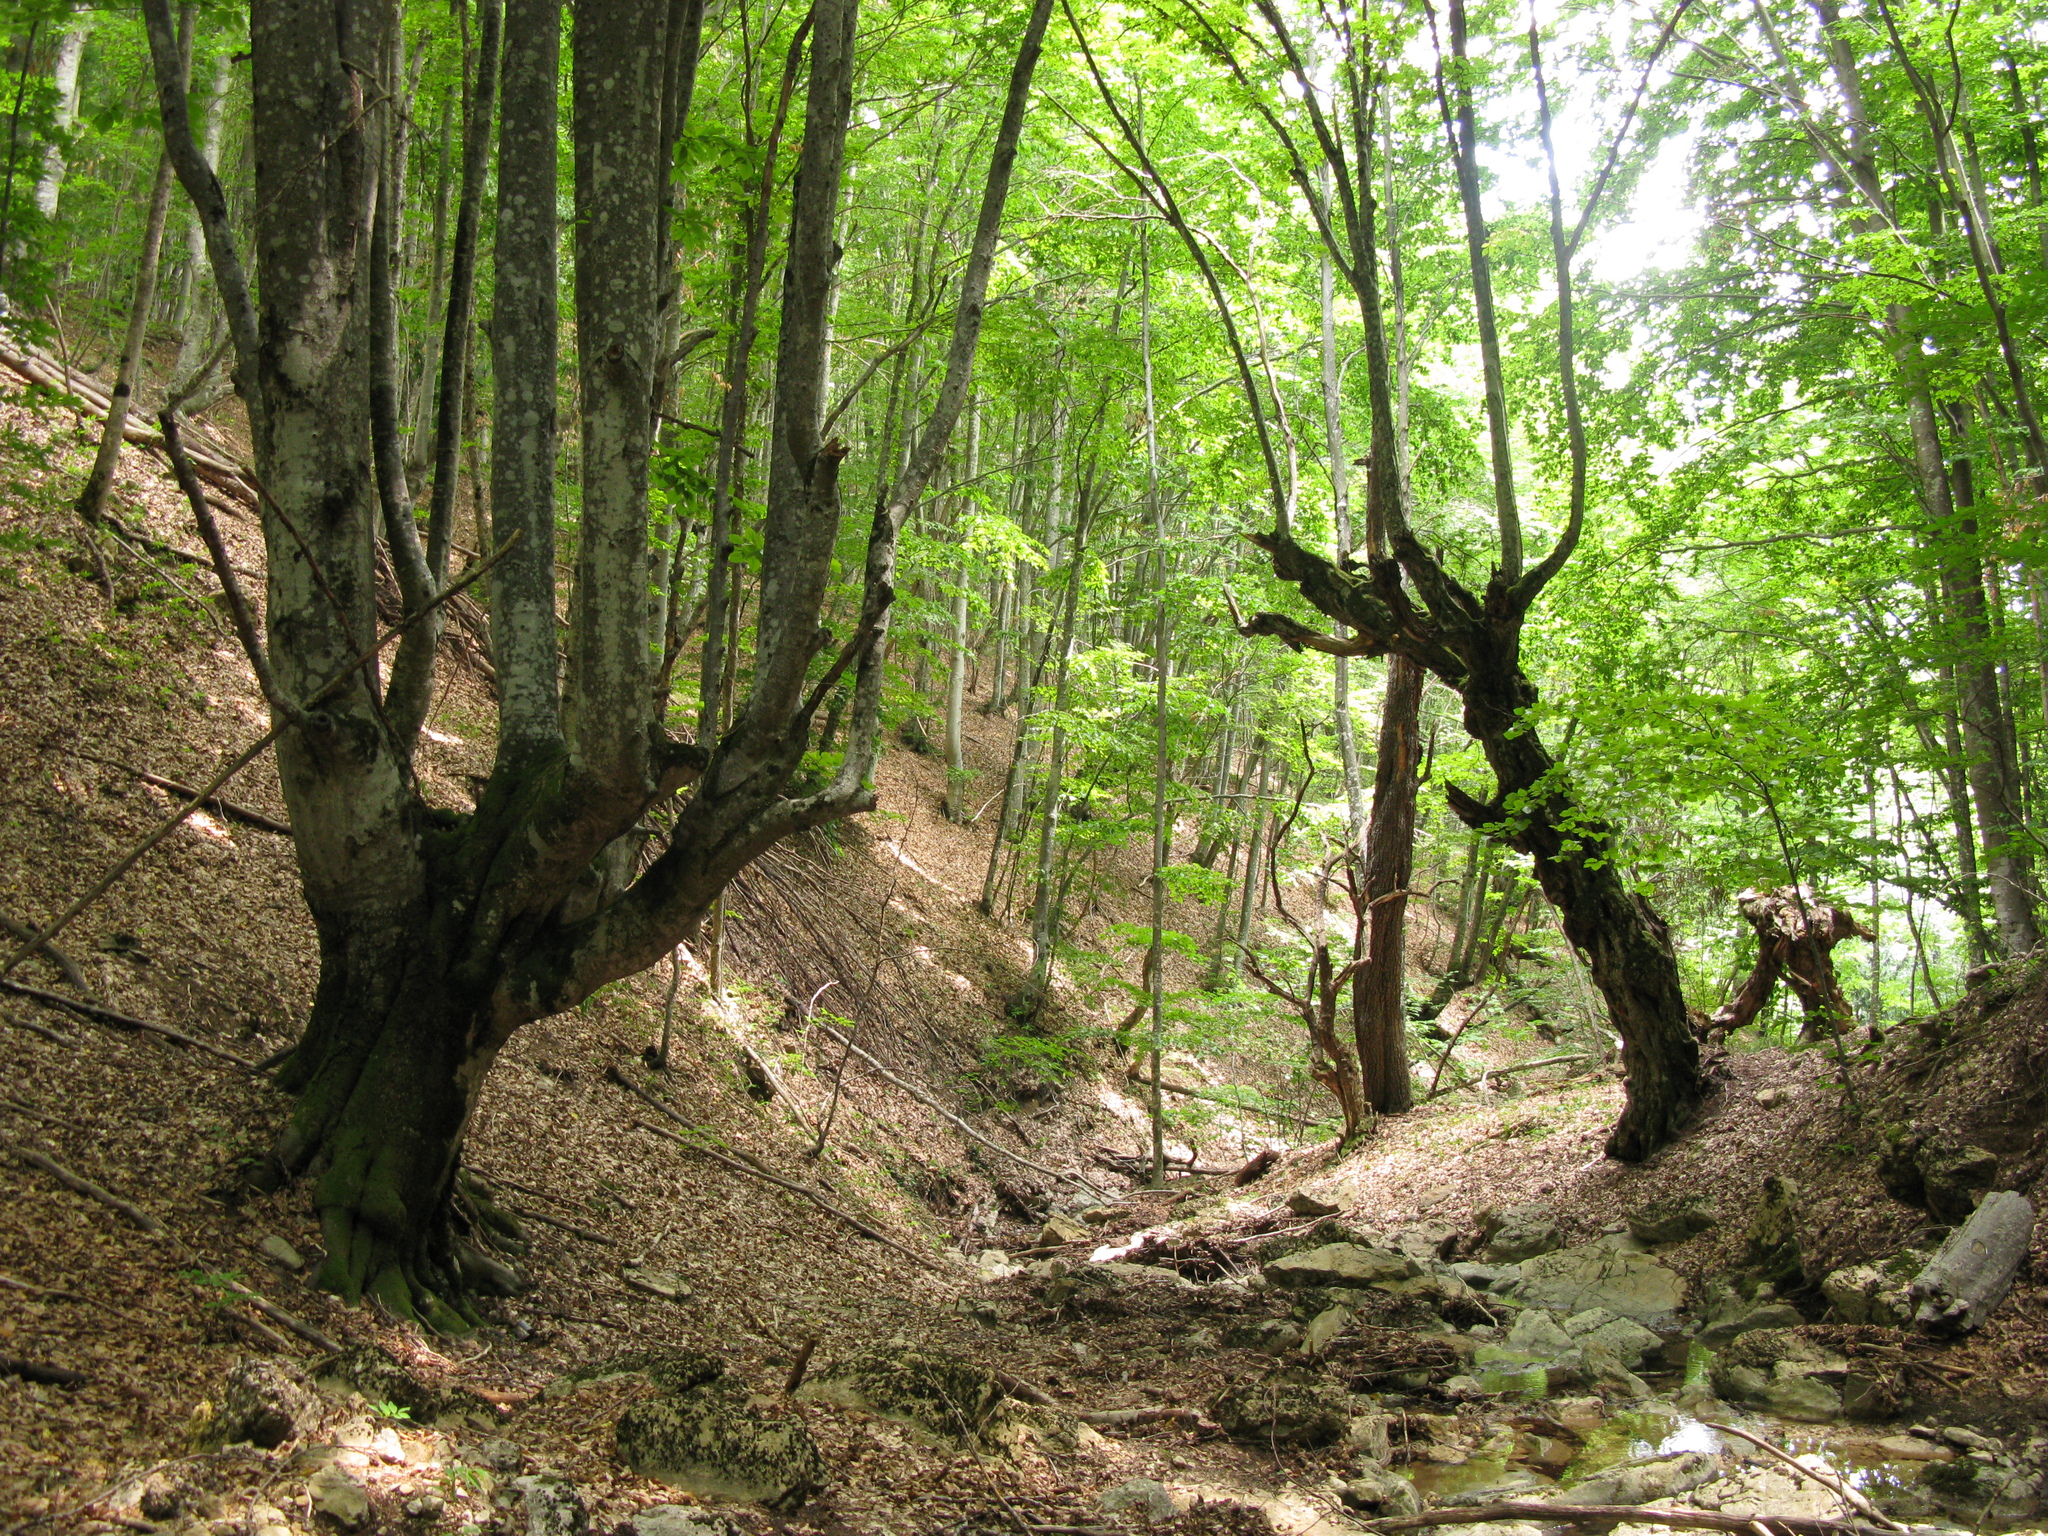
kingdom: Plantae
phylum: Tracheophyta
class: Magnoliopsida
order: Fagales
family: Fagaceae
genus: Fagus
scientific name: Fagus taurica
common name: Crimean beech
